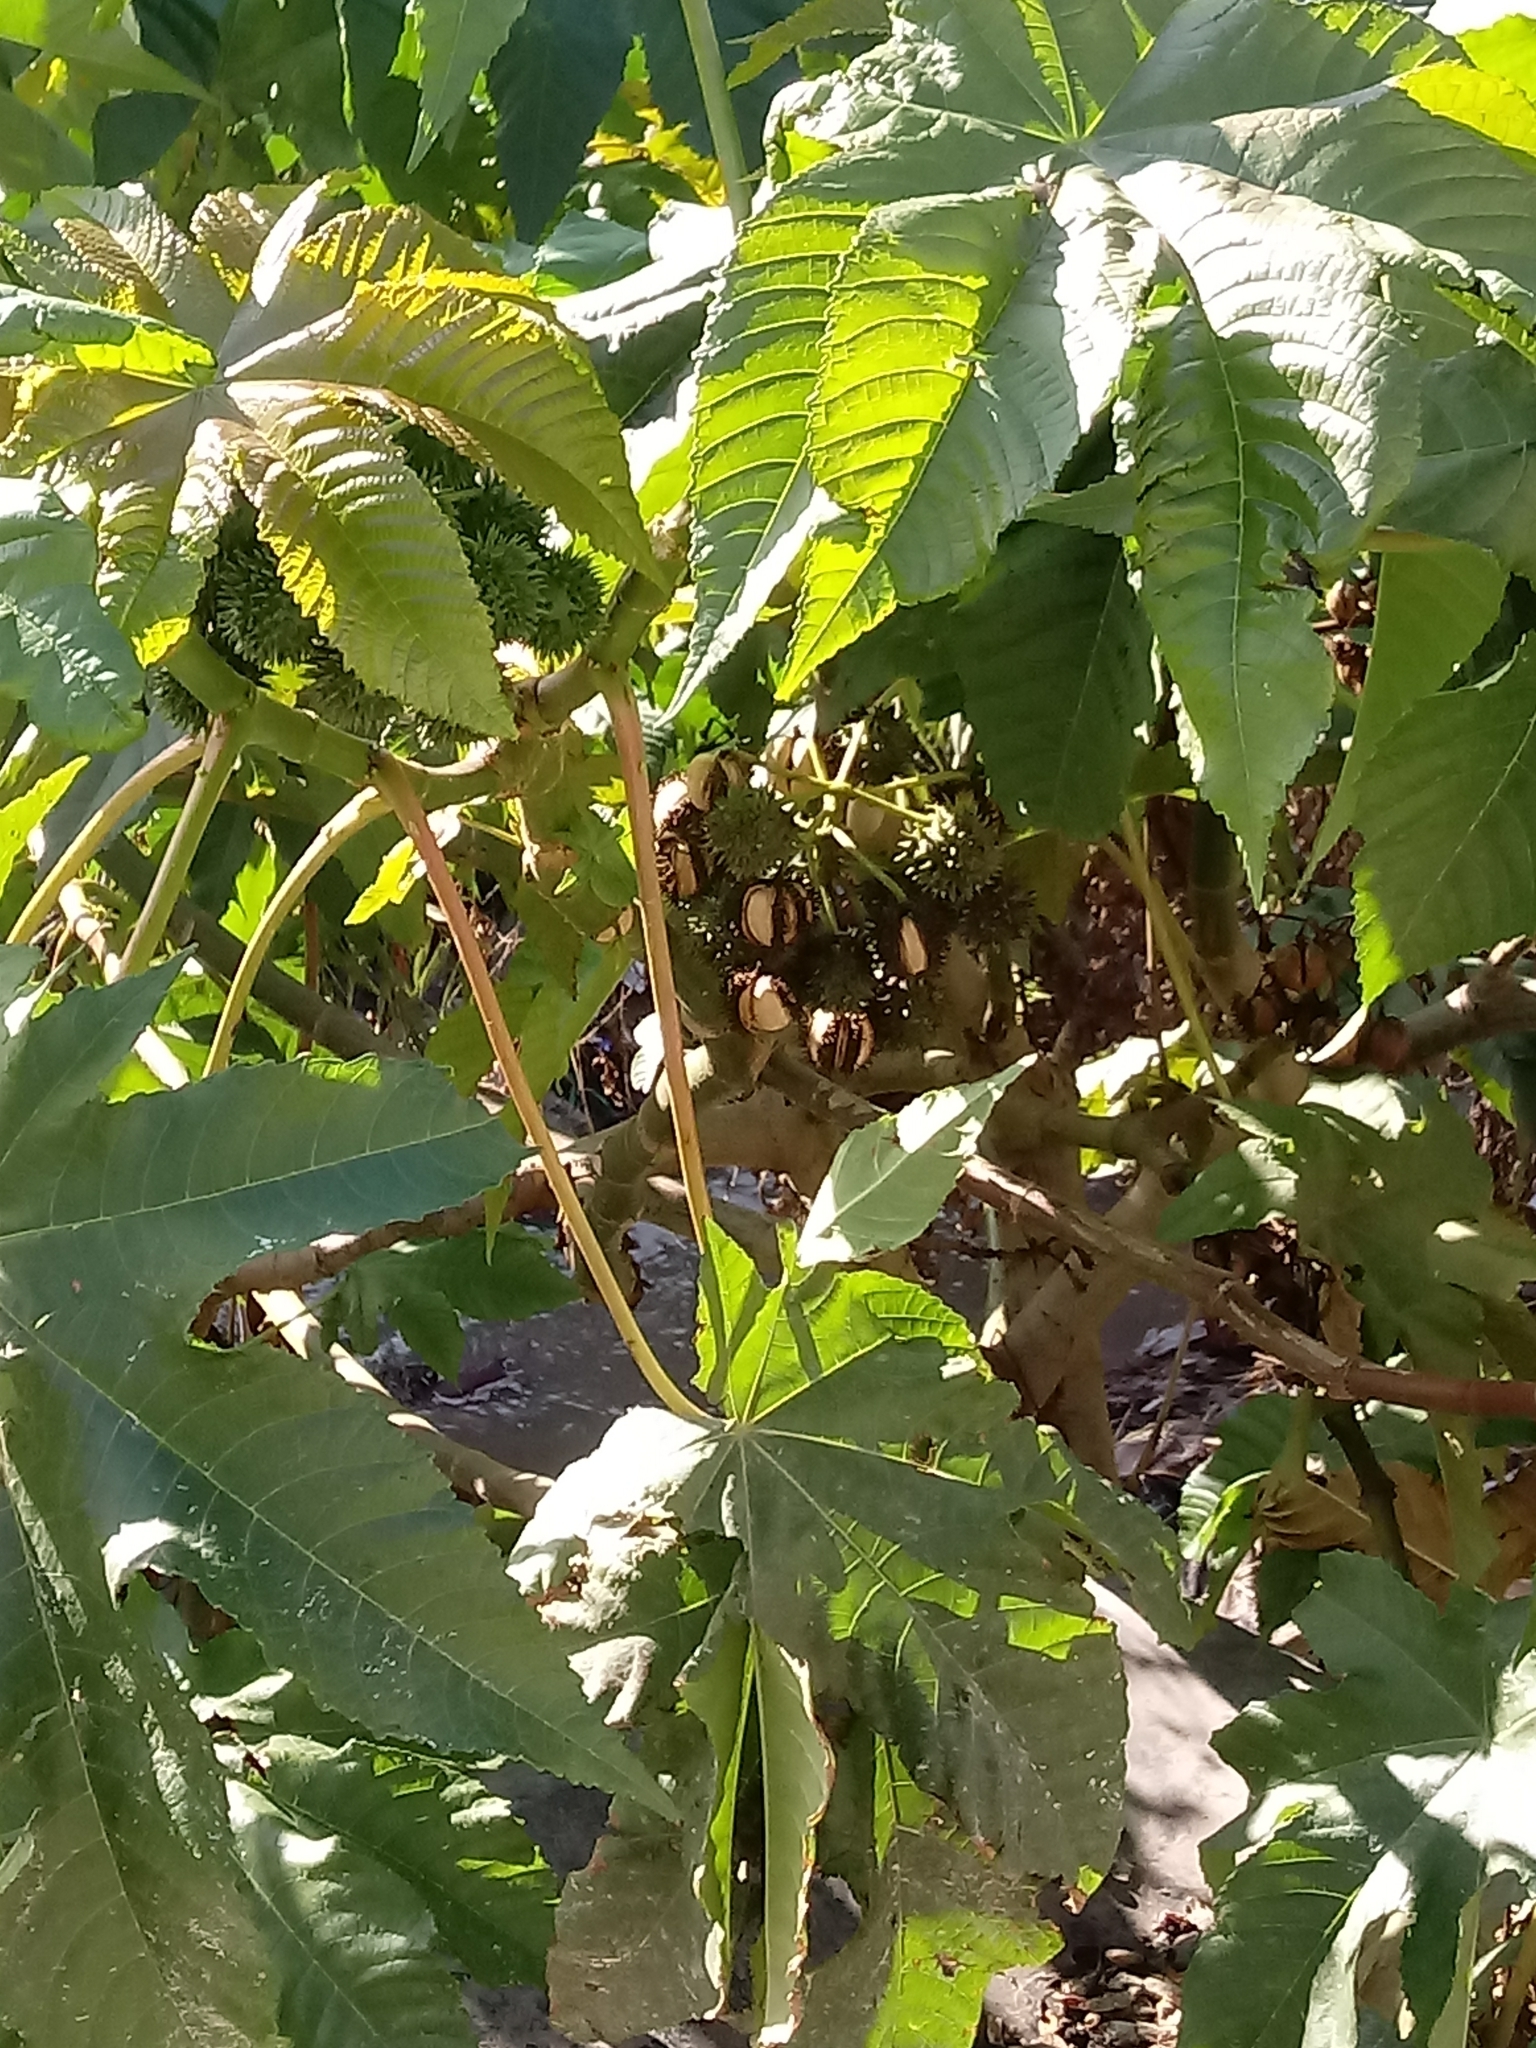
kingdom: Plantae
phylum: Tracheophyta
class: Magnoliopsida
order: Malpighiales
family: Euphorbiaceae
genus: Ricinus
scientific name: Ricinus communis
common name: Castor-oil-plant
